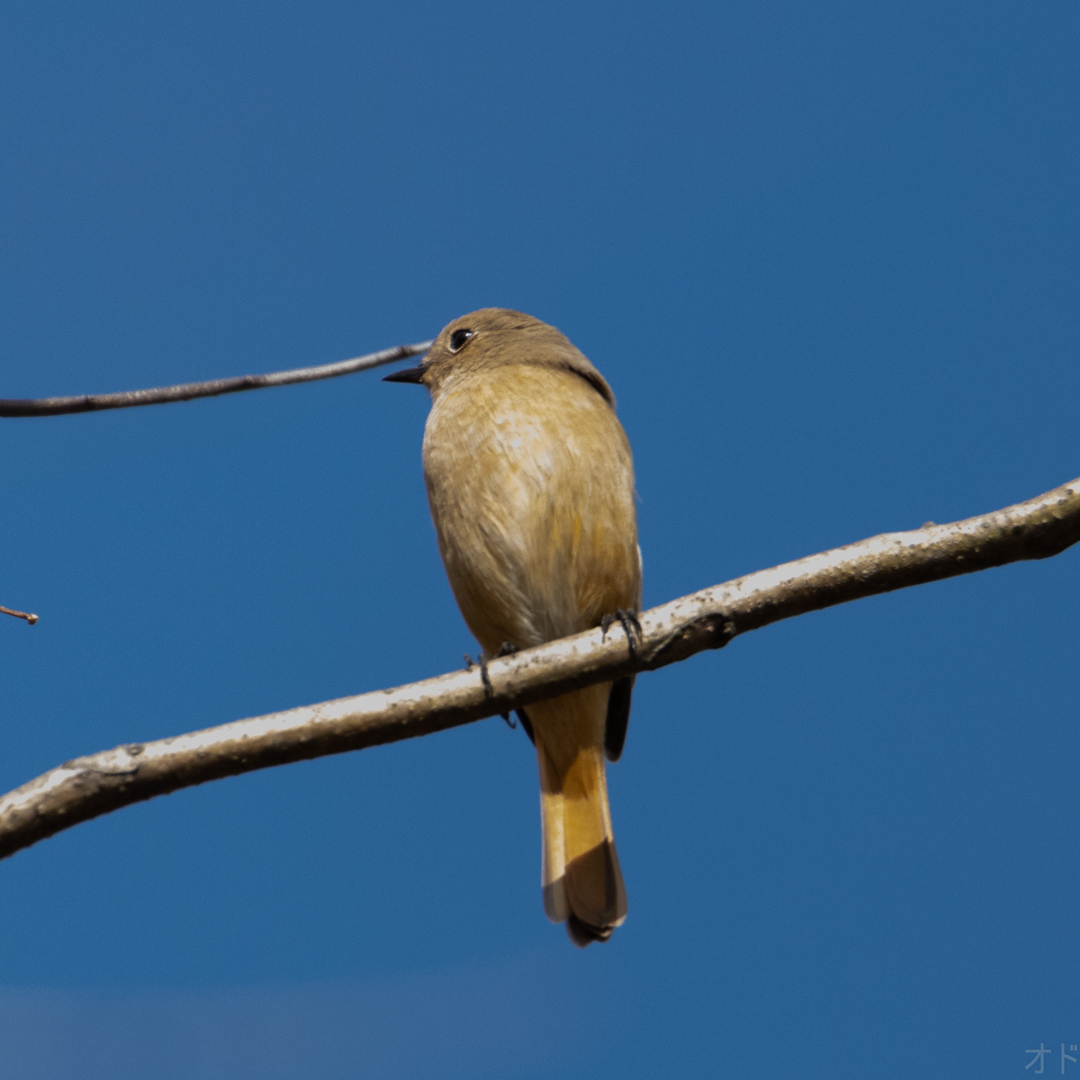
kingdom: Animalia
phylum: Chordata
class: Aves
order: Passeriformes
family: Muscicapidae
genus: Phoenicurus
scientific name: Phoenicurus auroreus
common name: Daurian redstart
